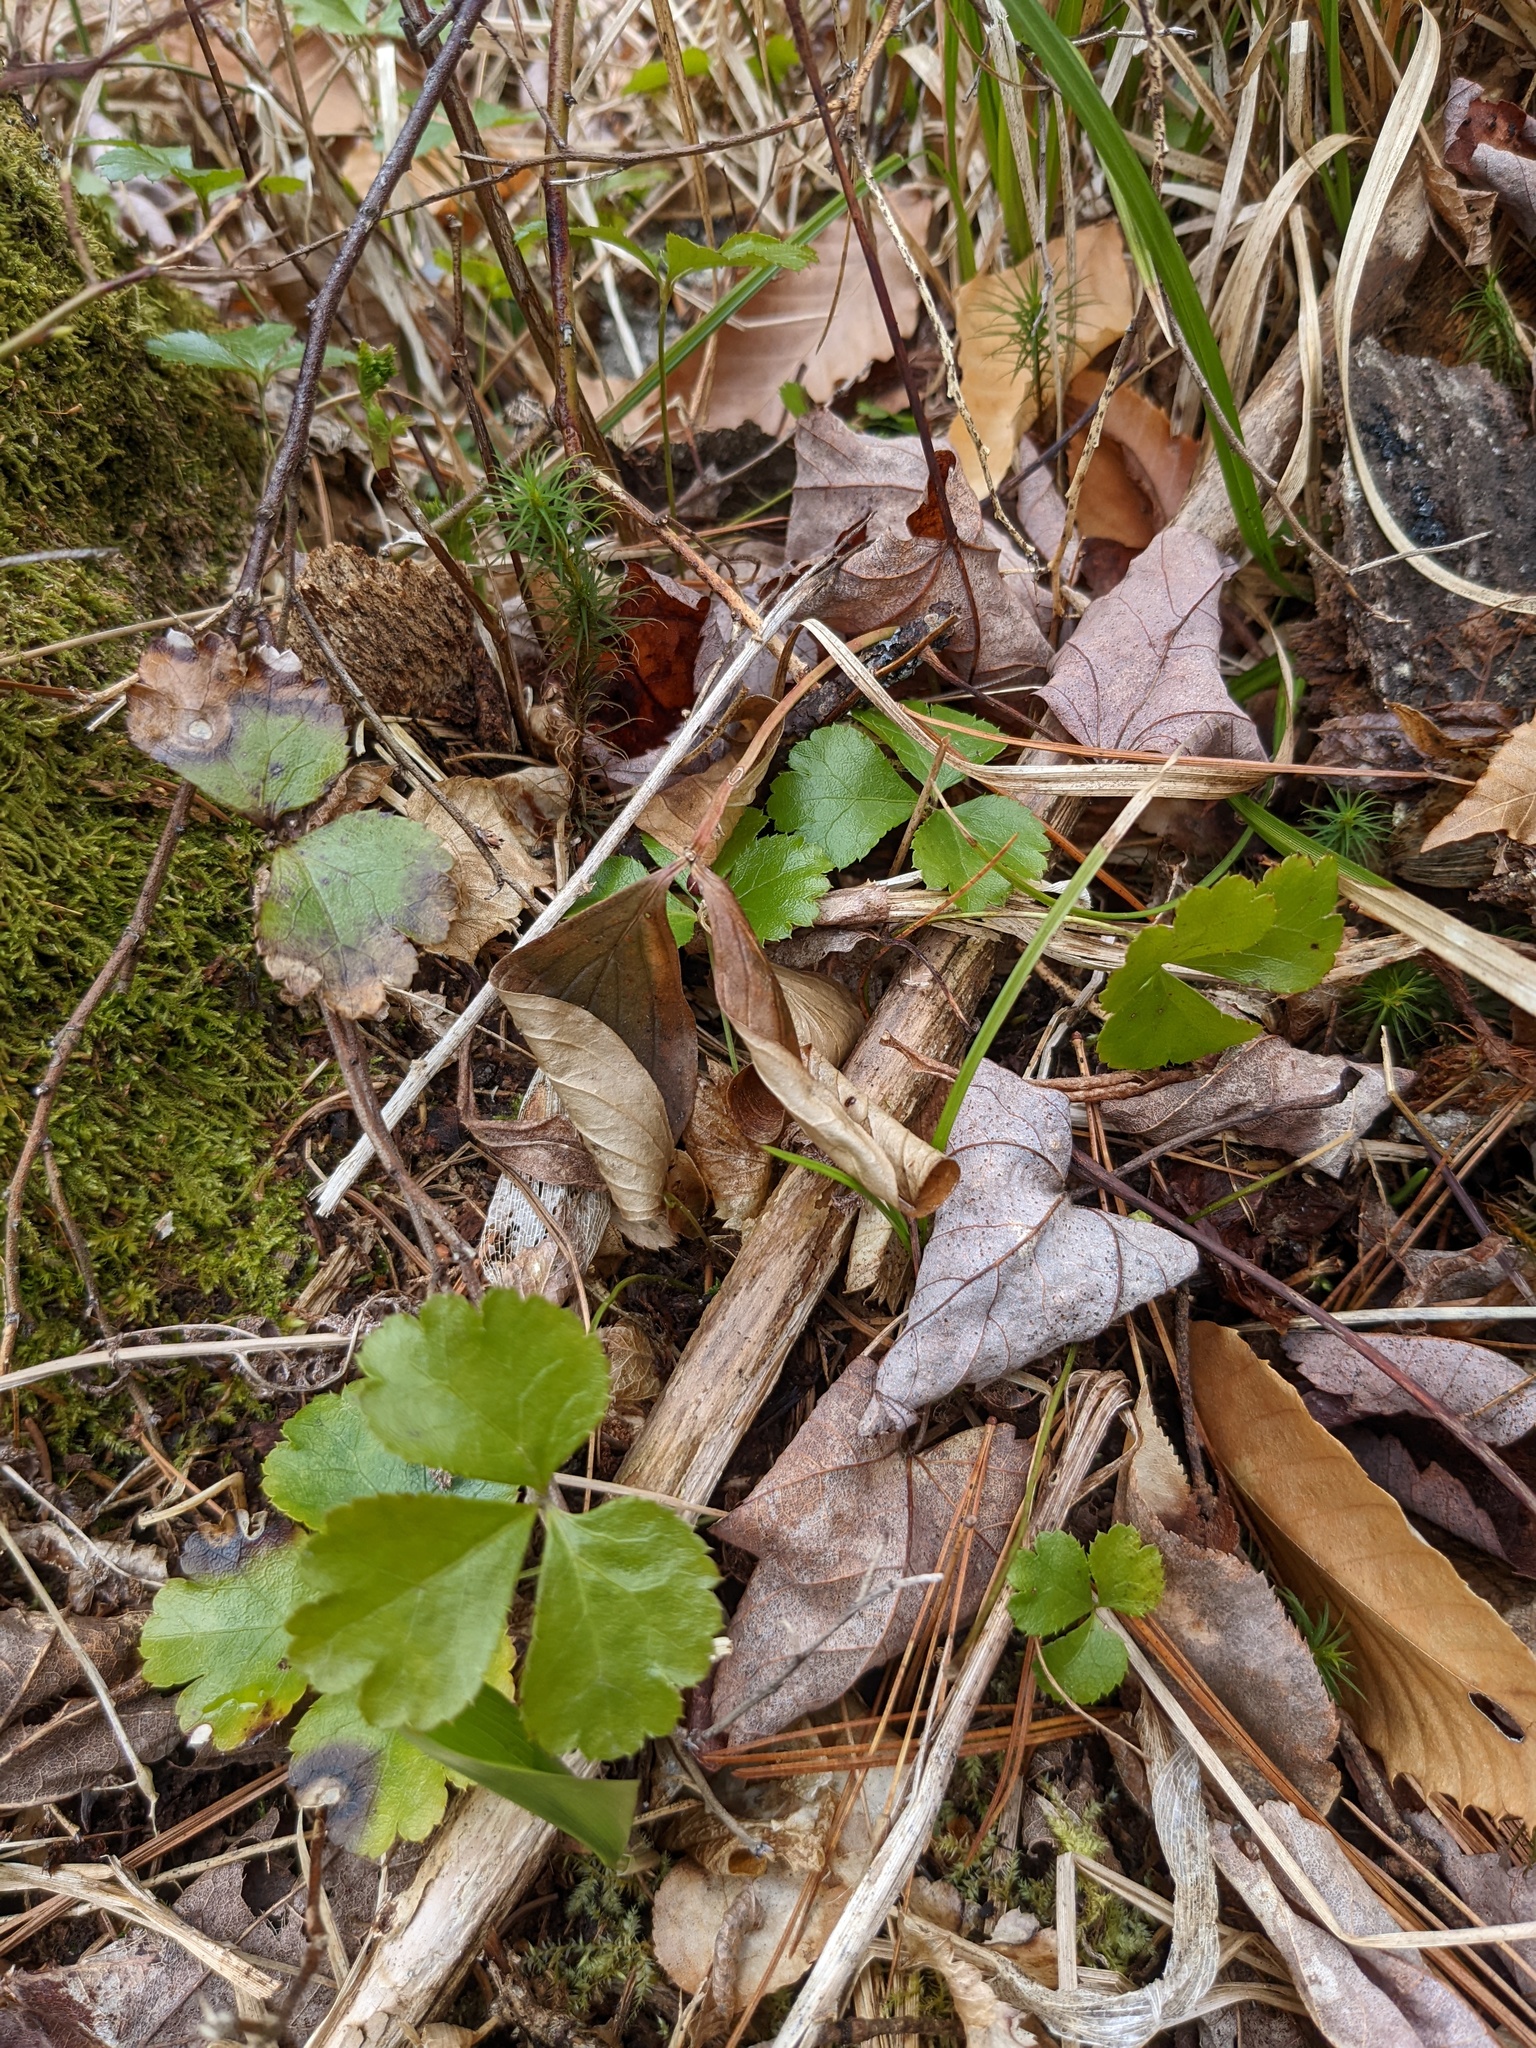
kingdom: Plantae
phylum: Tracheophyta
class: Magnoliopsida
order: Ranunculales
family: Ranunculaceae
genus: Coptis
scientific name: Coptis trifolia
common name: Canker-root
